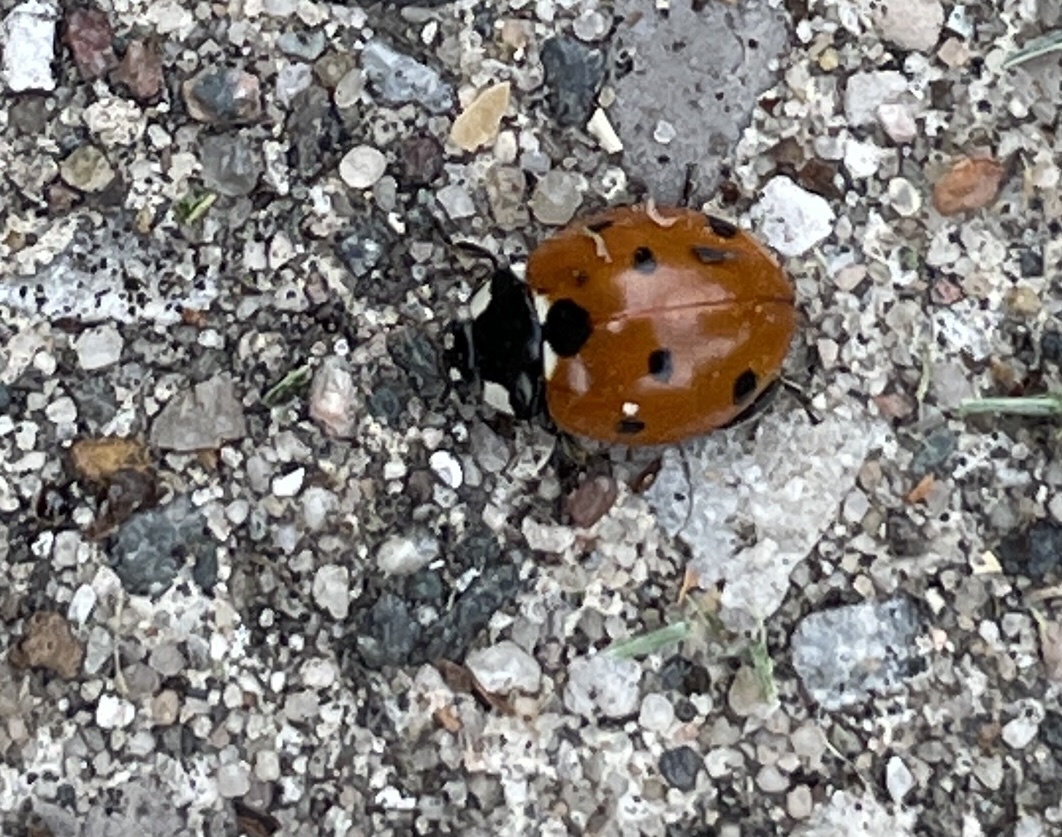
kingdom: Animalia
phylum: Arthropoda
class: Insecta
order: Coleoptera
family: Coccinellidae
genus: Coccinella
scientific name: Coccinella septempunctata
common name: Sevenspotted lady beetle
